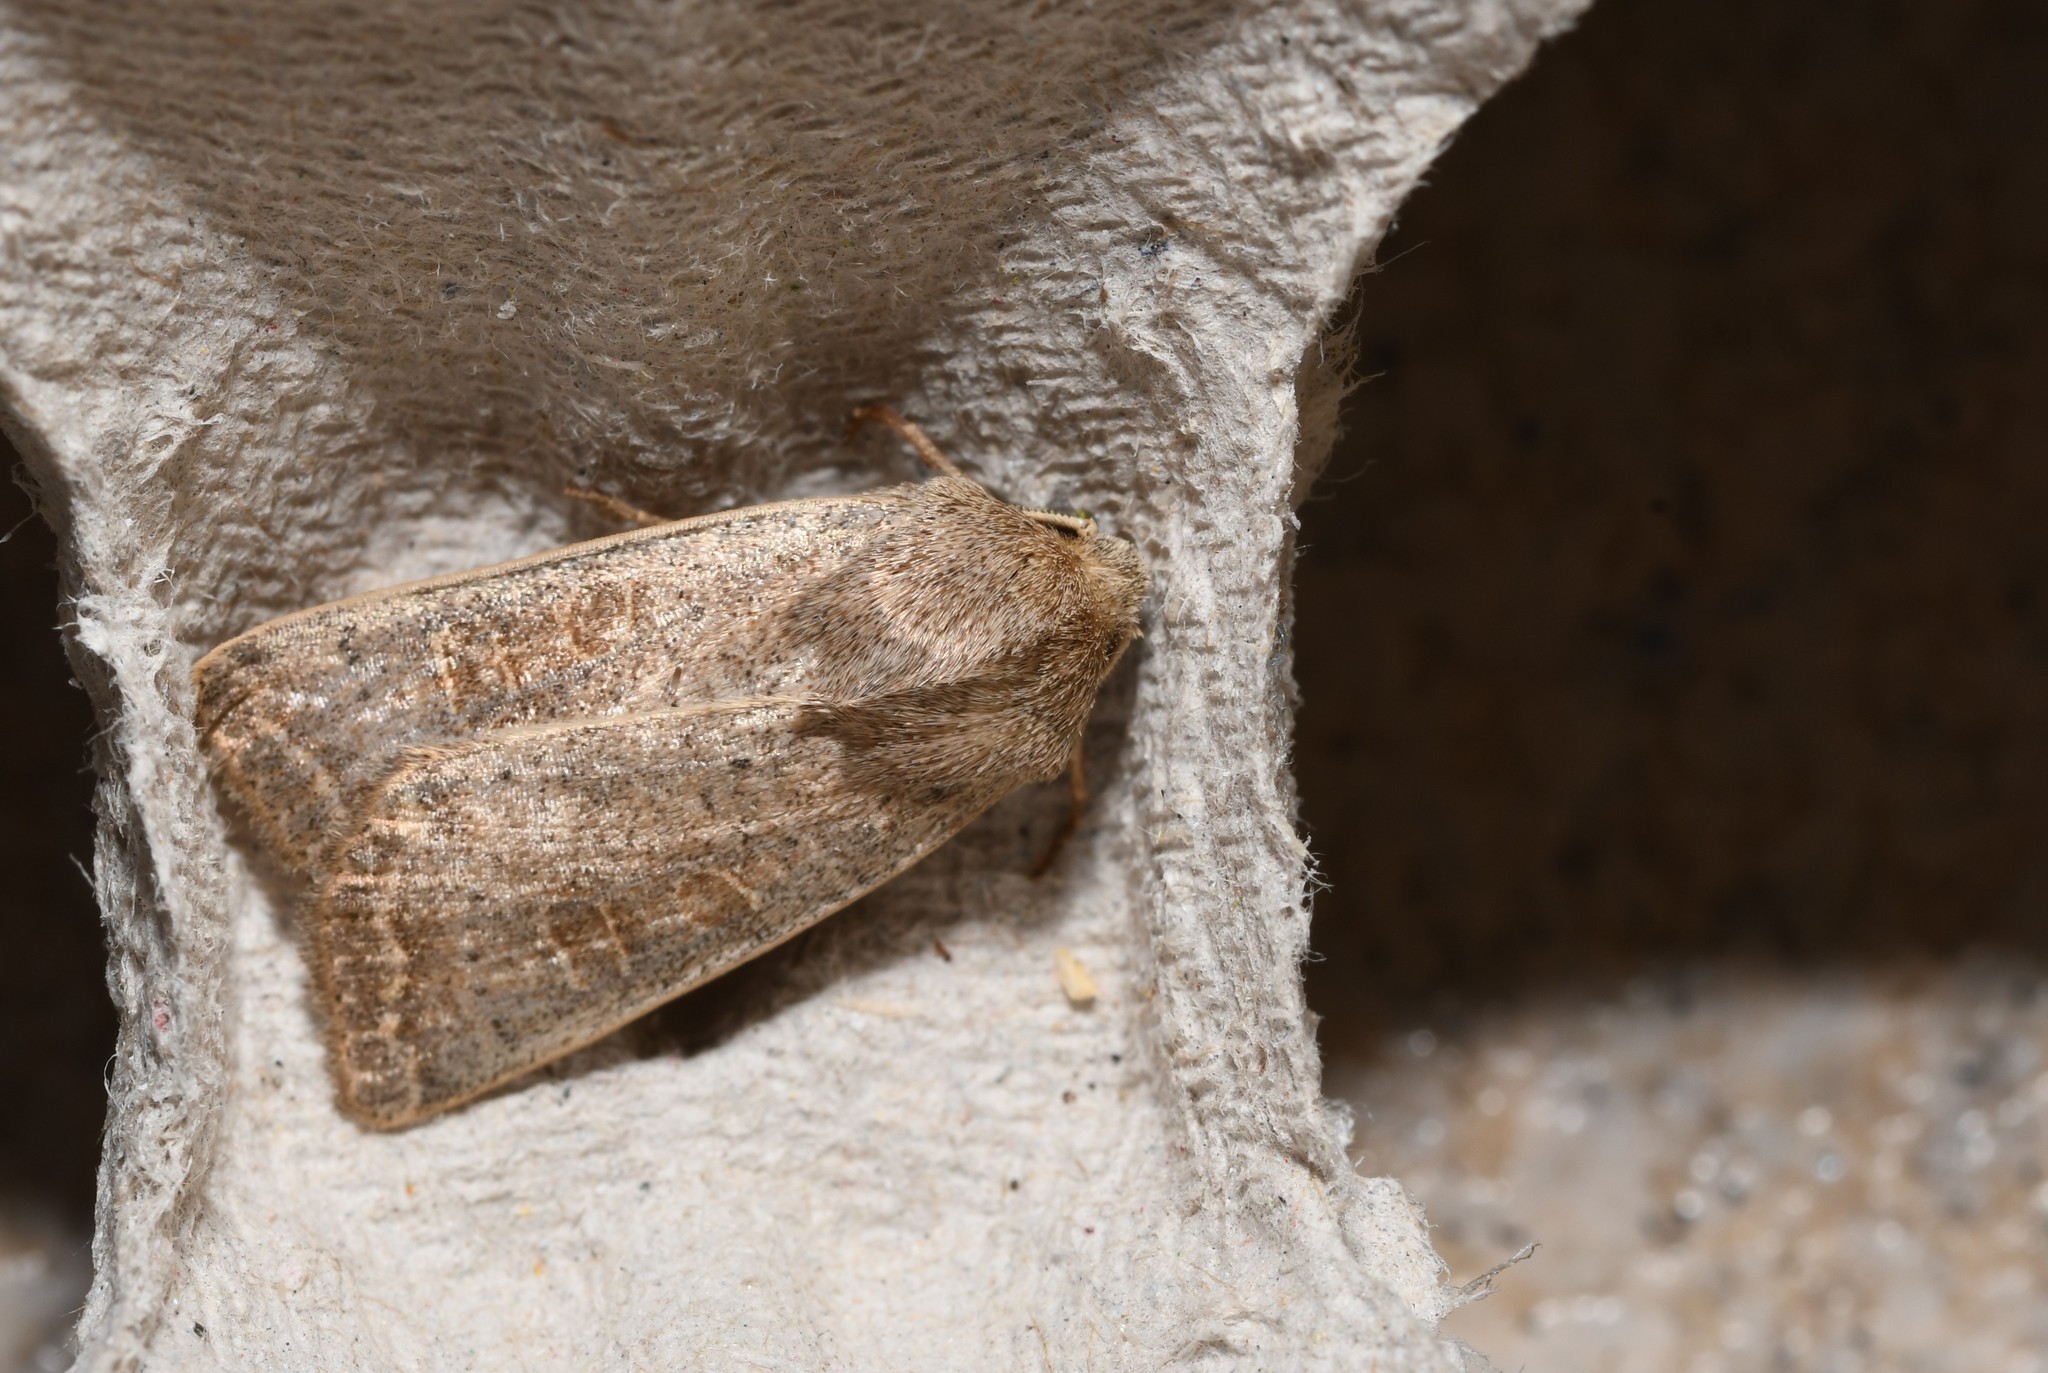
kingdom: Animalia
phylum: Arthropoda
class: Insecta
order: Lepidoptera
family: Noctuidae
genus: Hoplodrina
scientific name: Hoplodrina ambigua
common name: Vine's rustic
